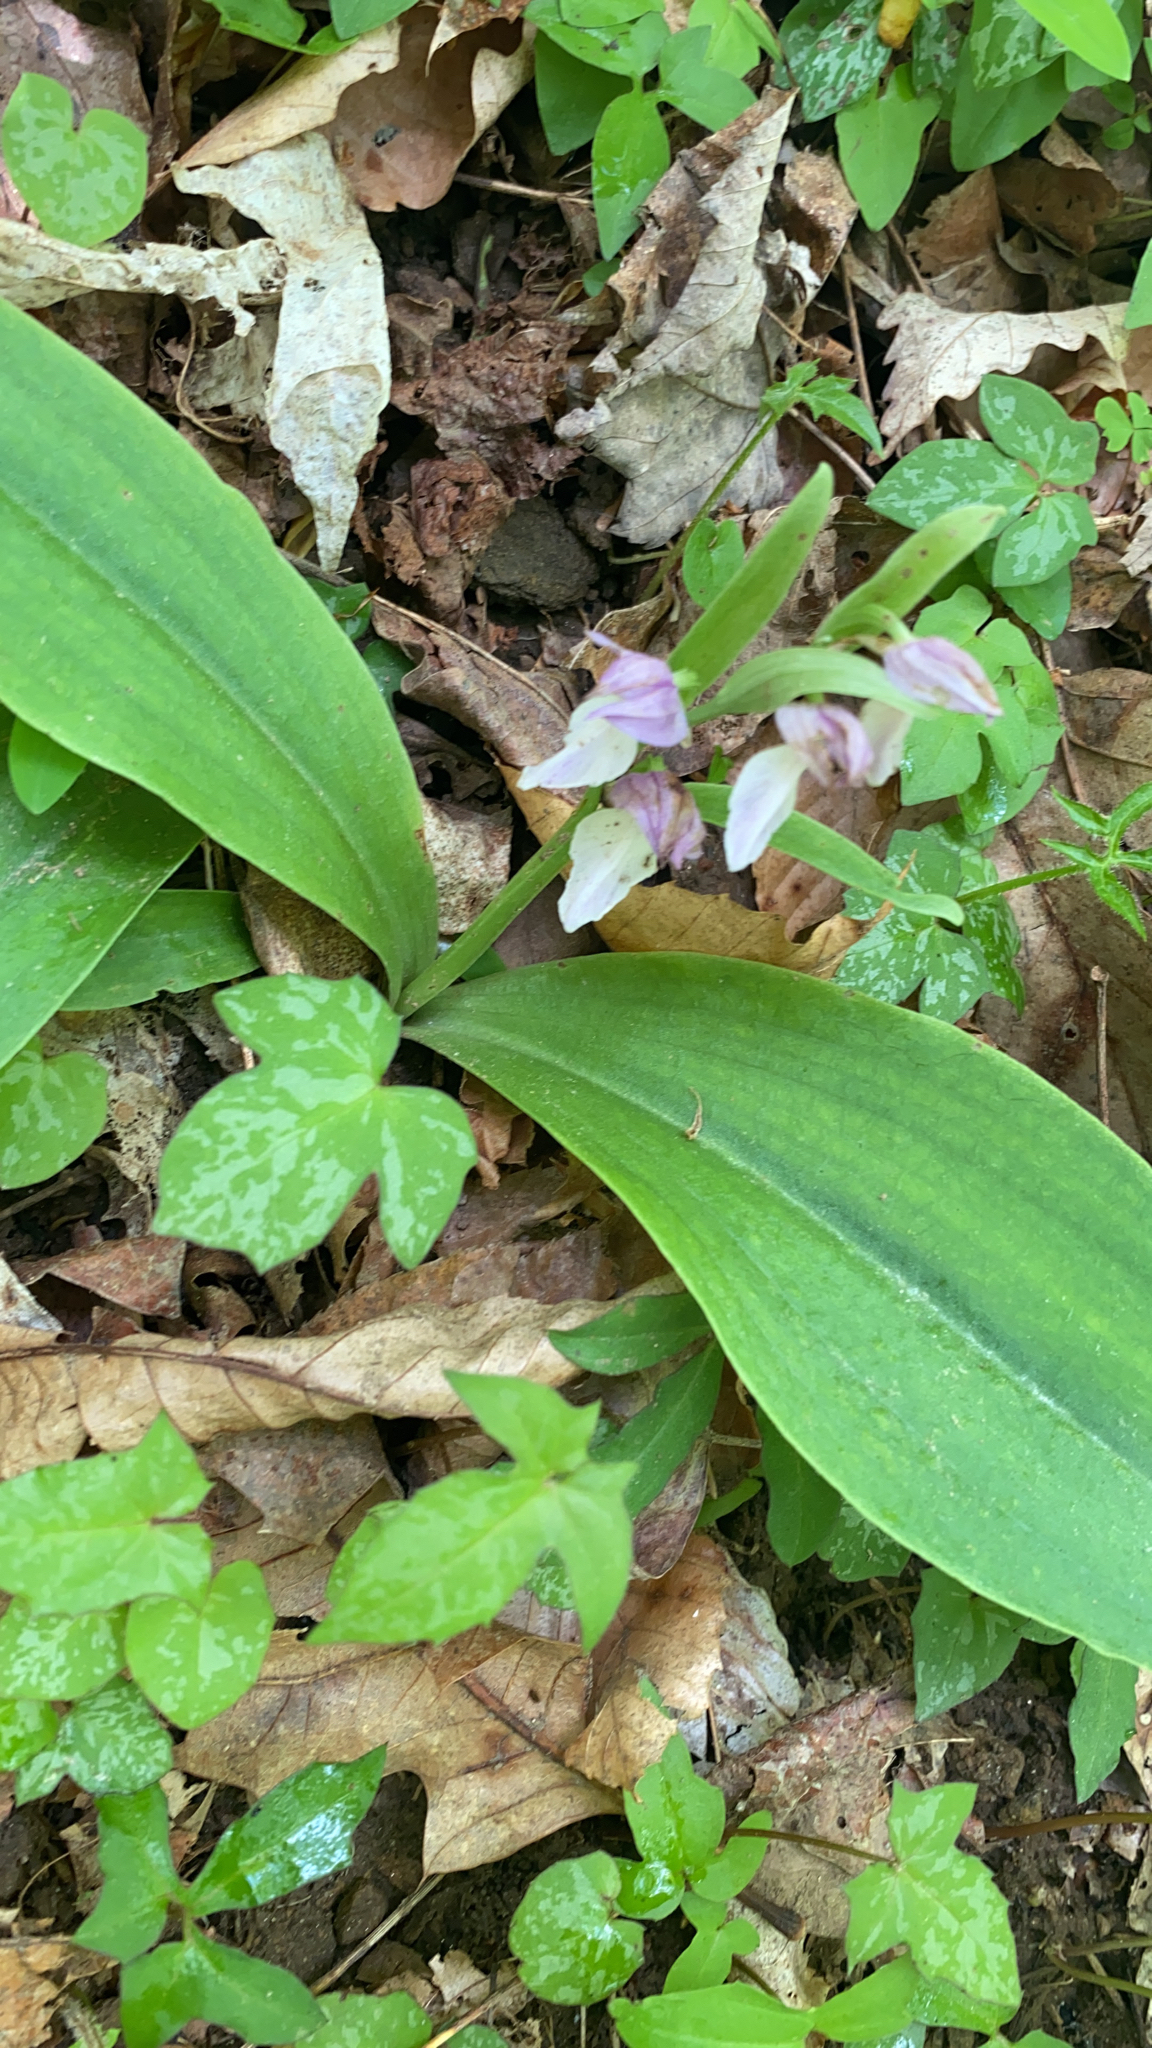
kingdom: Plantae
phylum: Tracheophyta
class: Liliopsida
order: Asparagales
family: Orchidaceae
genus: Galearis
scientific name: Galearis spectabilis
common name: Purple-hooded orchis
